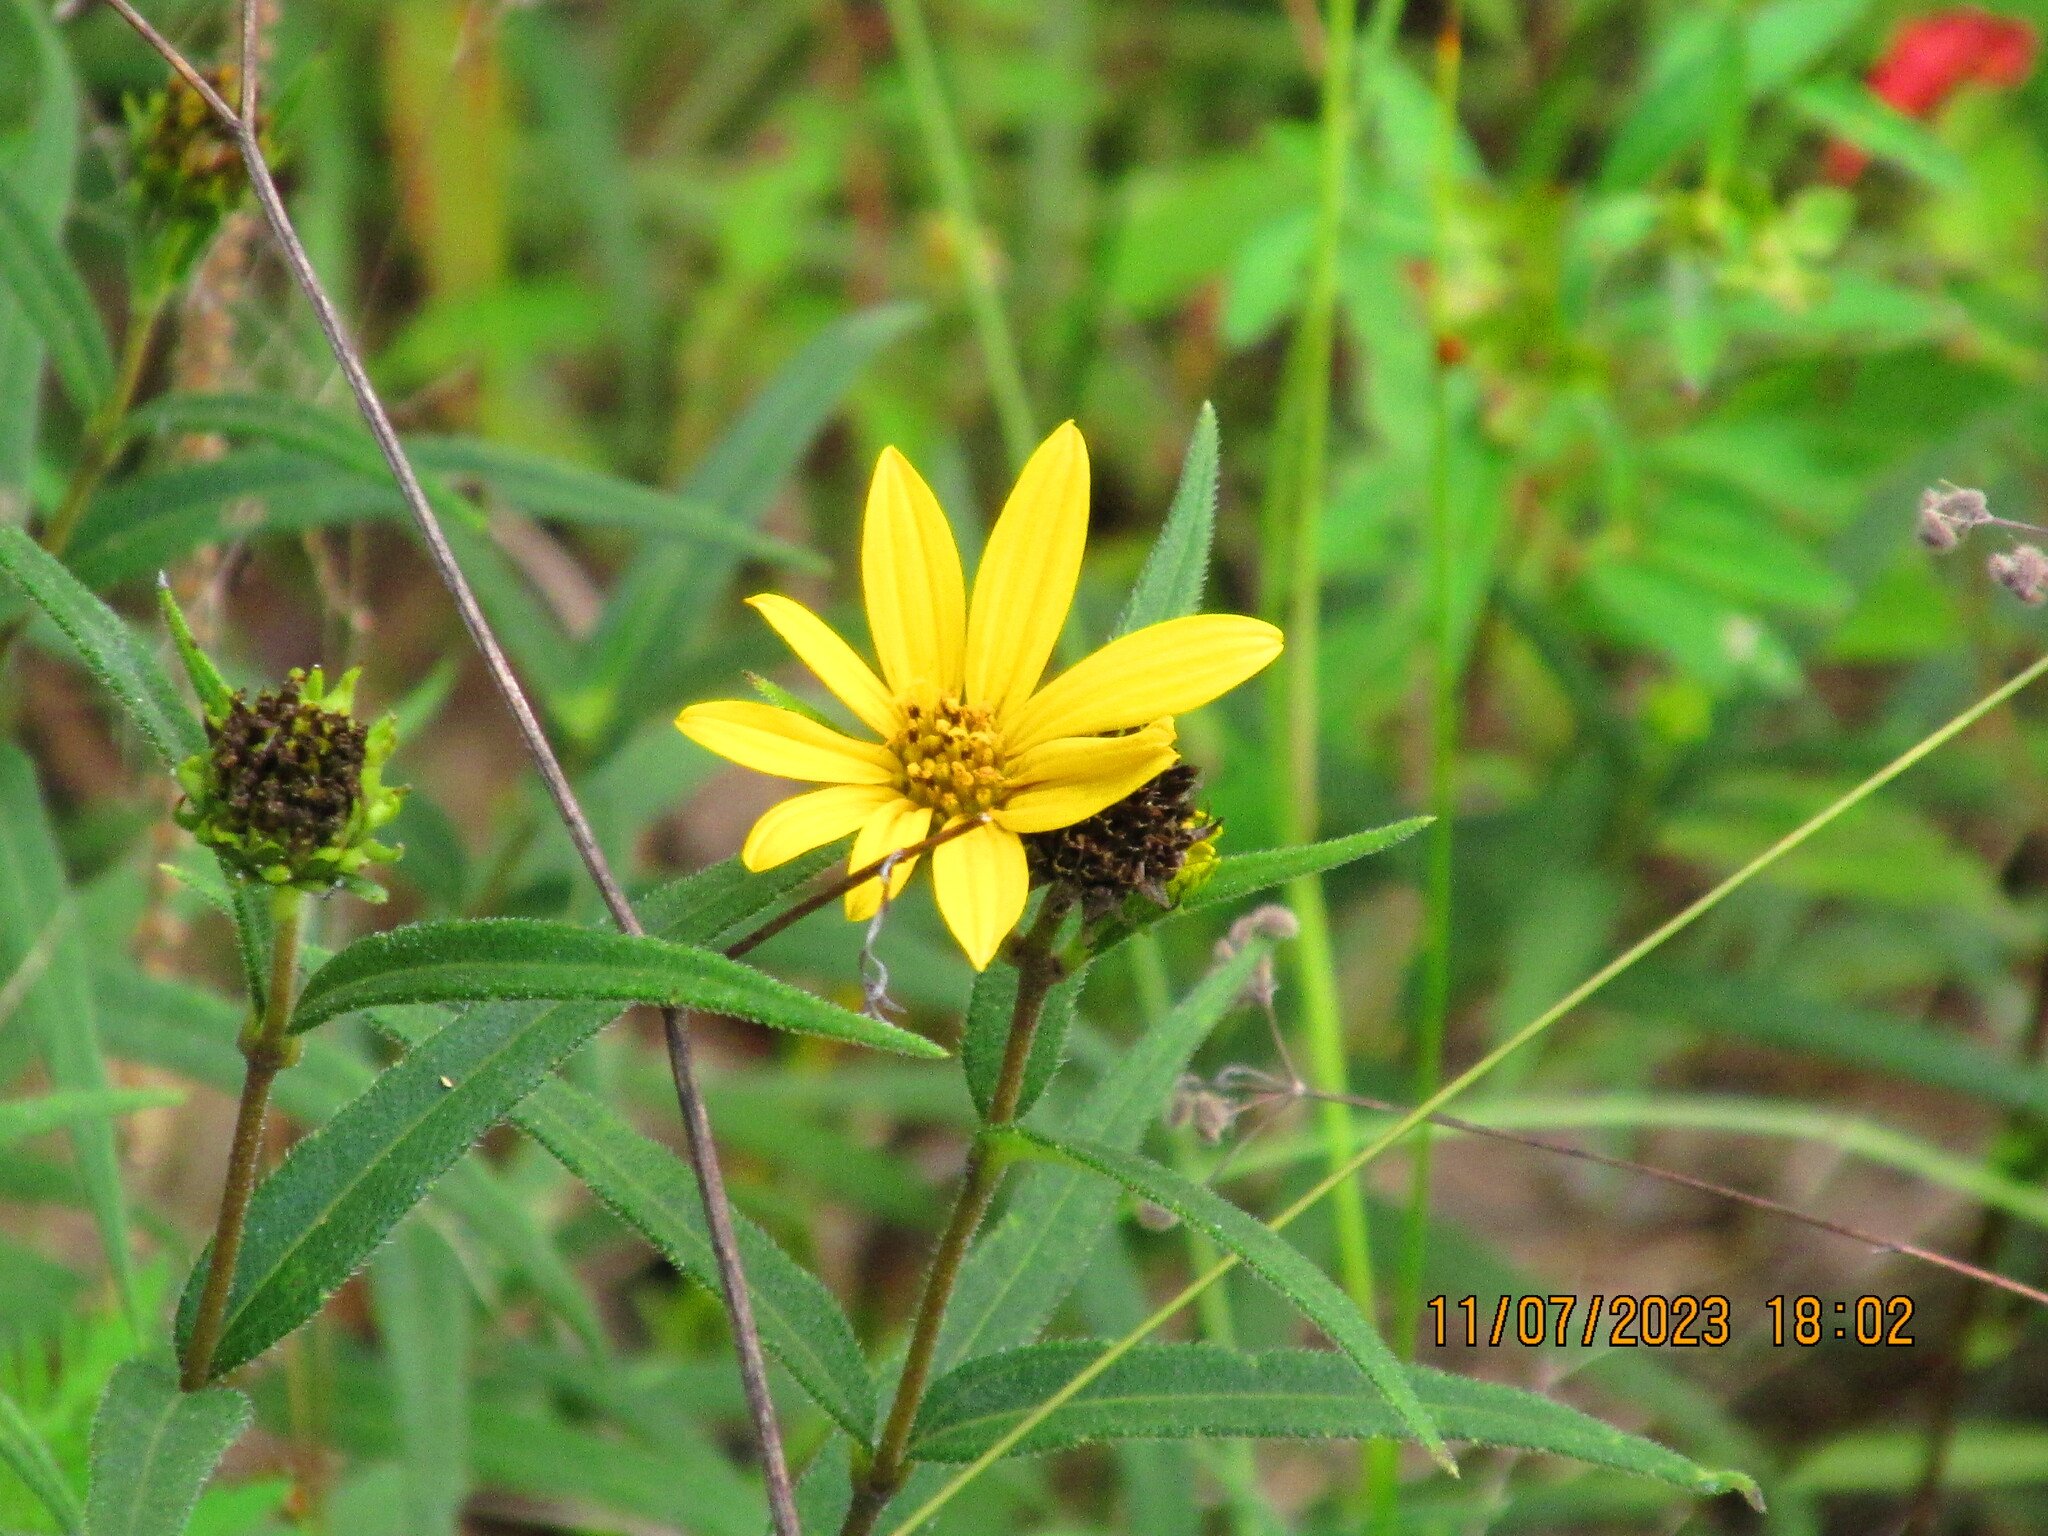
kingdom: Plantae
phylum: Tracheophyta
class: Magnoliopsida
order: Asterales
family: Asteraceae
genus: Helianthus
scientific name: Helianthus hirsutus
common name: Hairy sunflower
